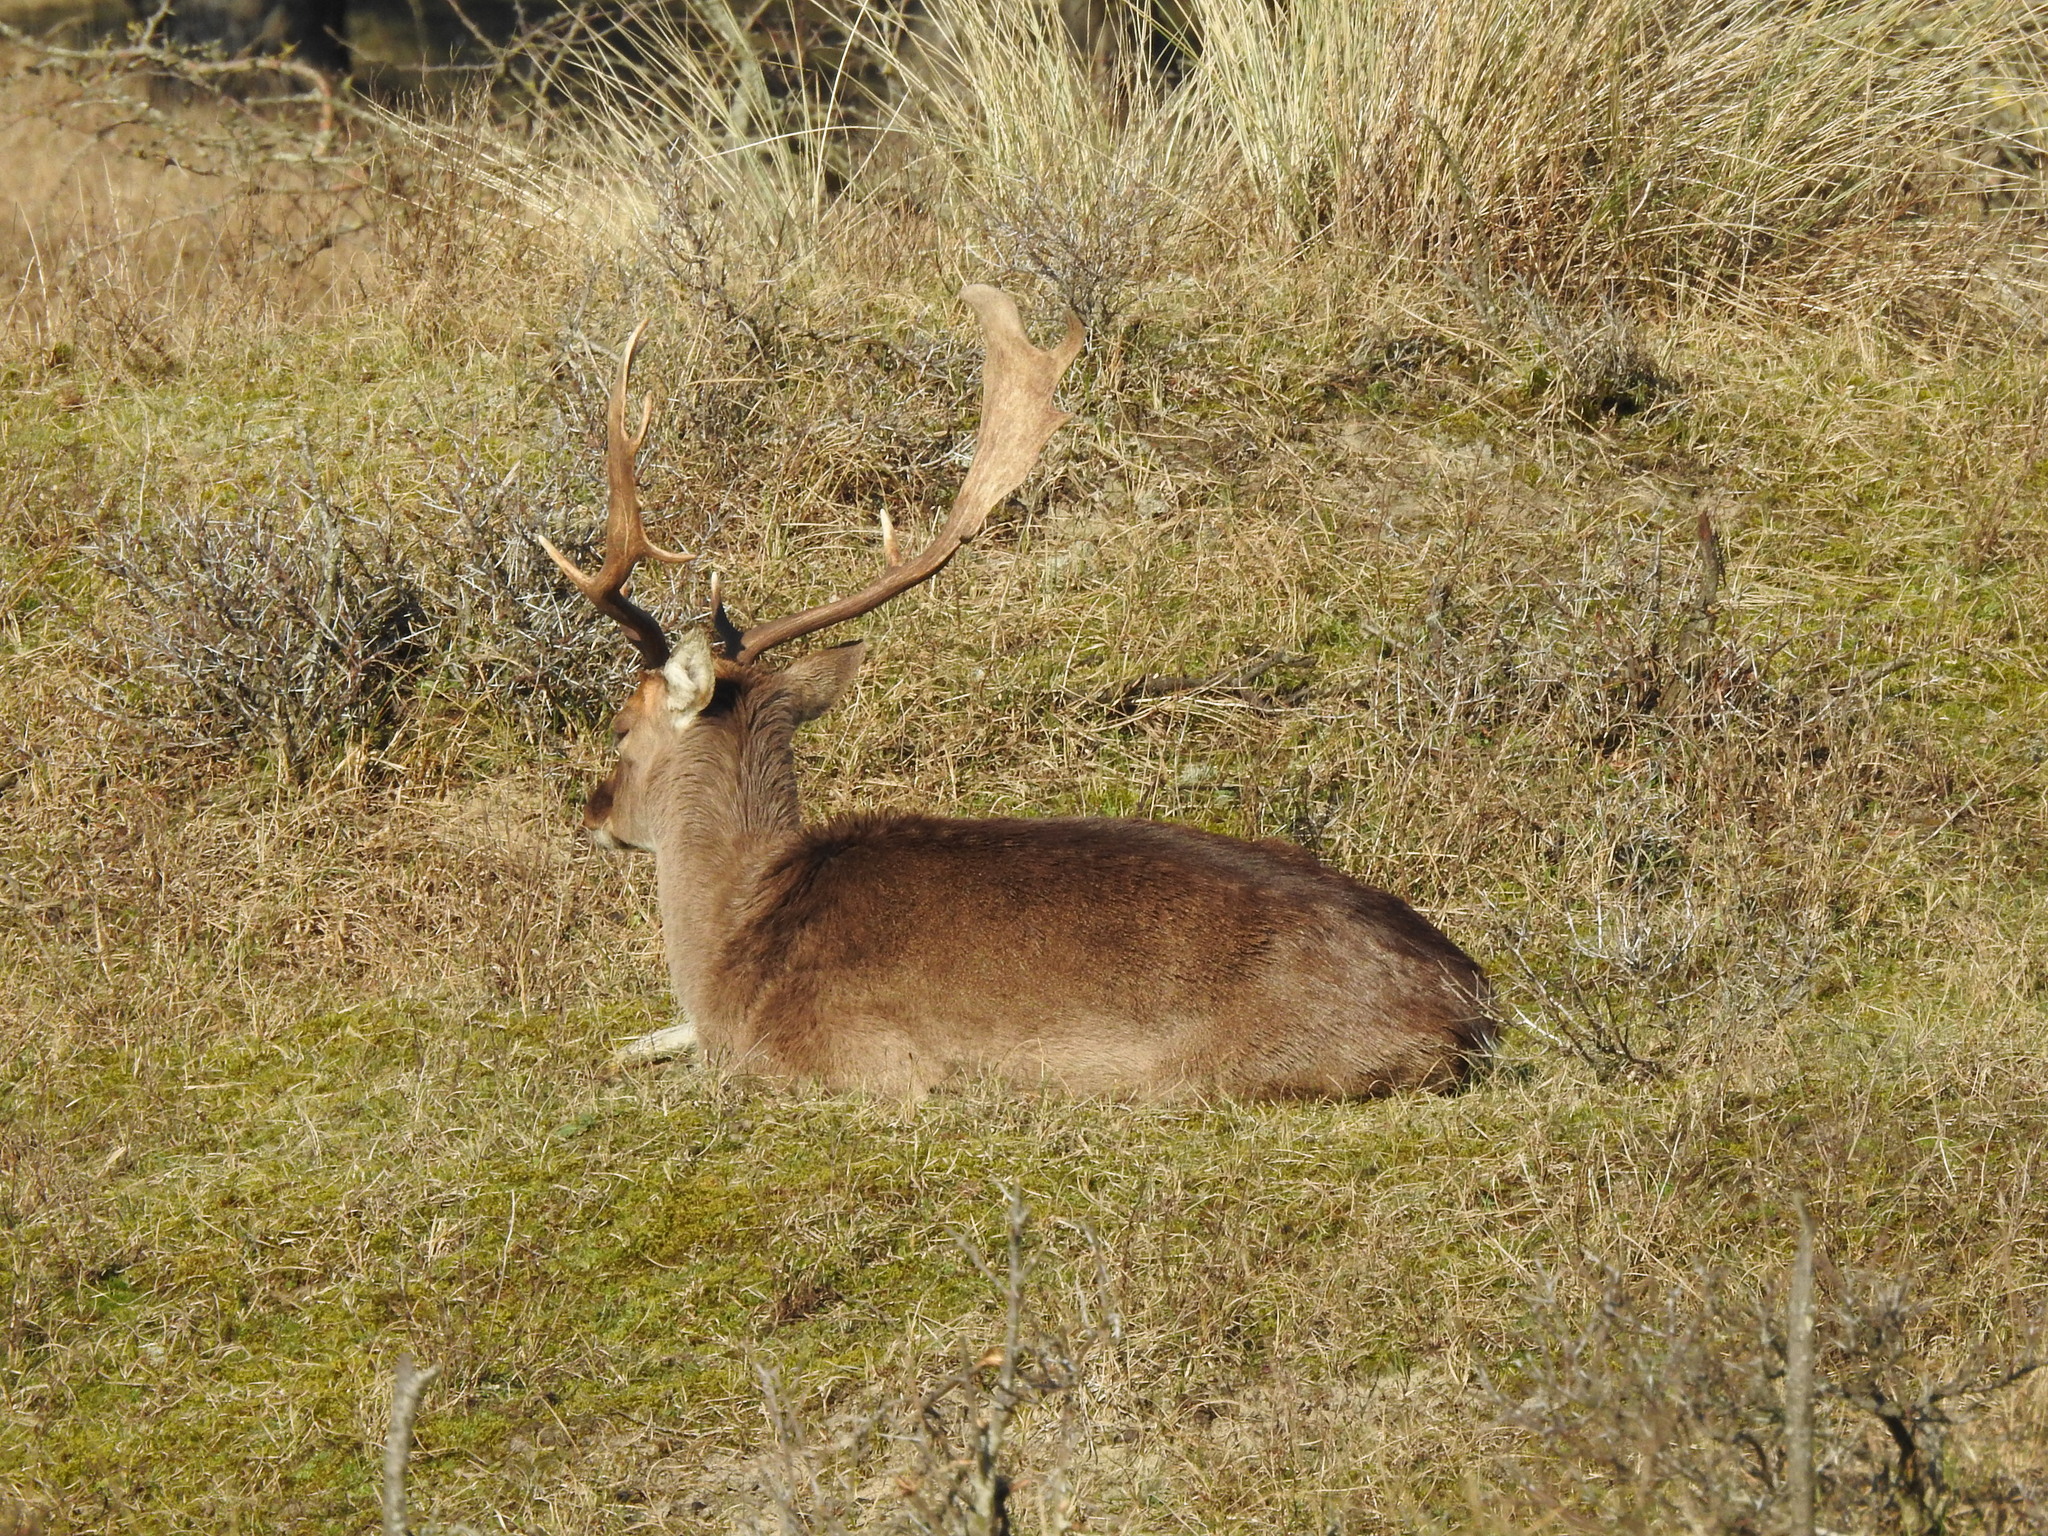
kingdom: Animalia
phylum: Chordata
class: Mammalia
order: Artiodactyla
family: Cervidae
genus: Dama
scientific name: Dama dama
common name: Fallow deer
